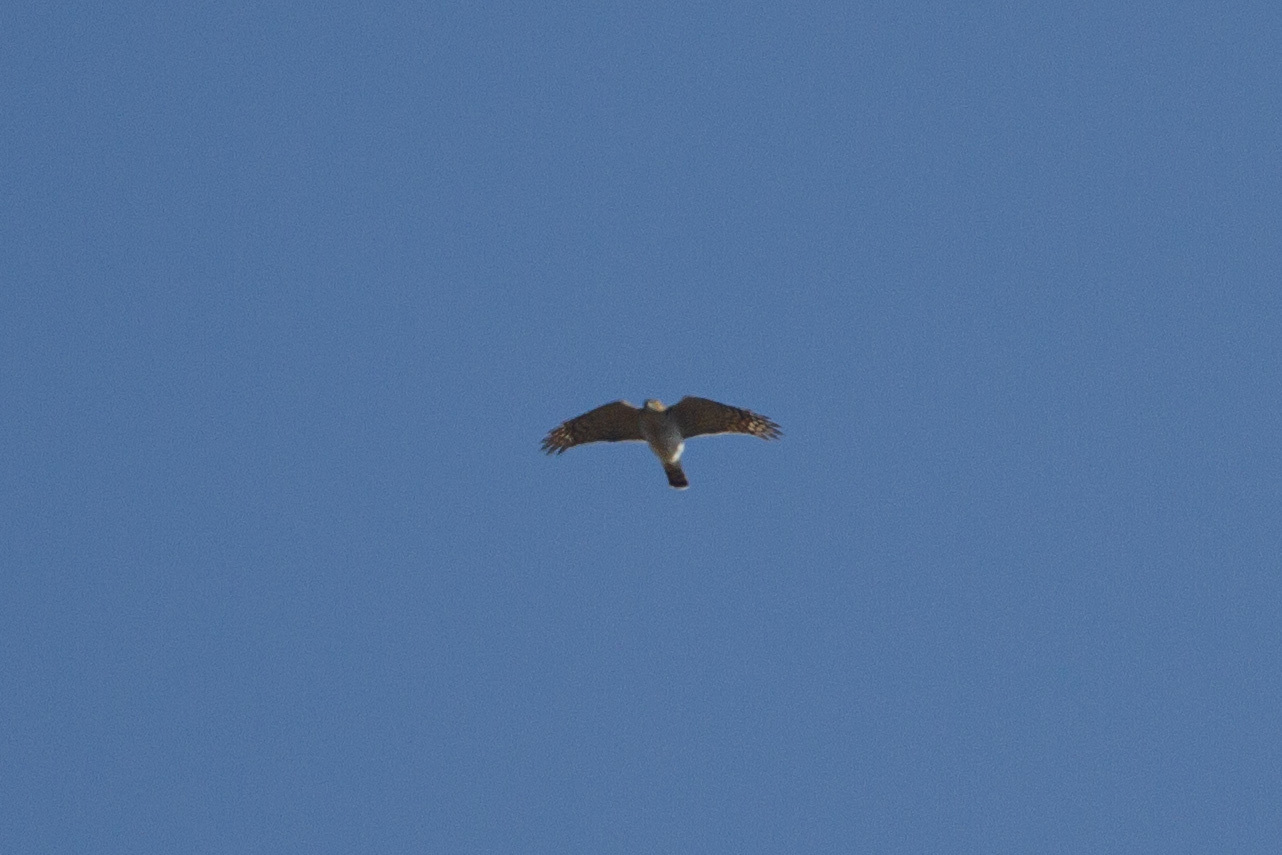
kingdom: Animalia
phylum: Chordata
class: Aves
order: Accipitriformes
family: Accipitridae
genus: Accipiter
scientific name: Accipiter nisus
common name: Eurasian sparrowhawk
